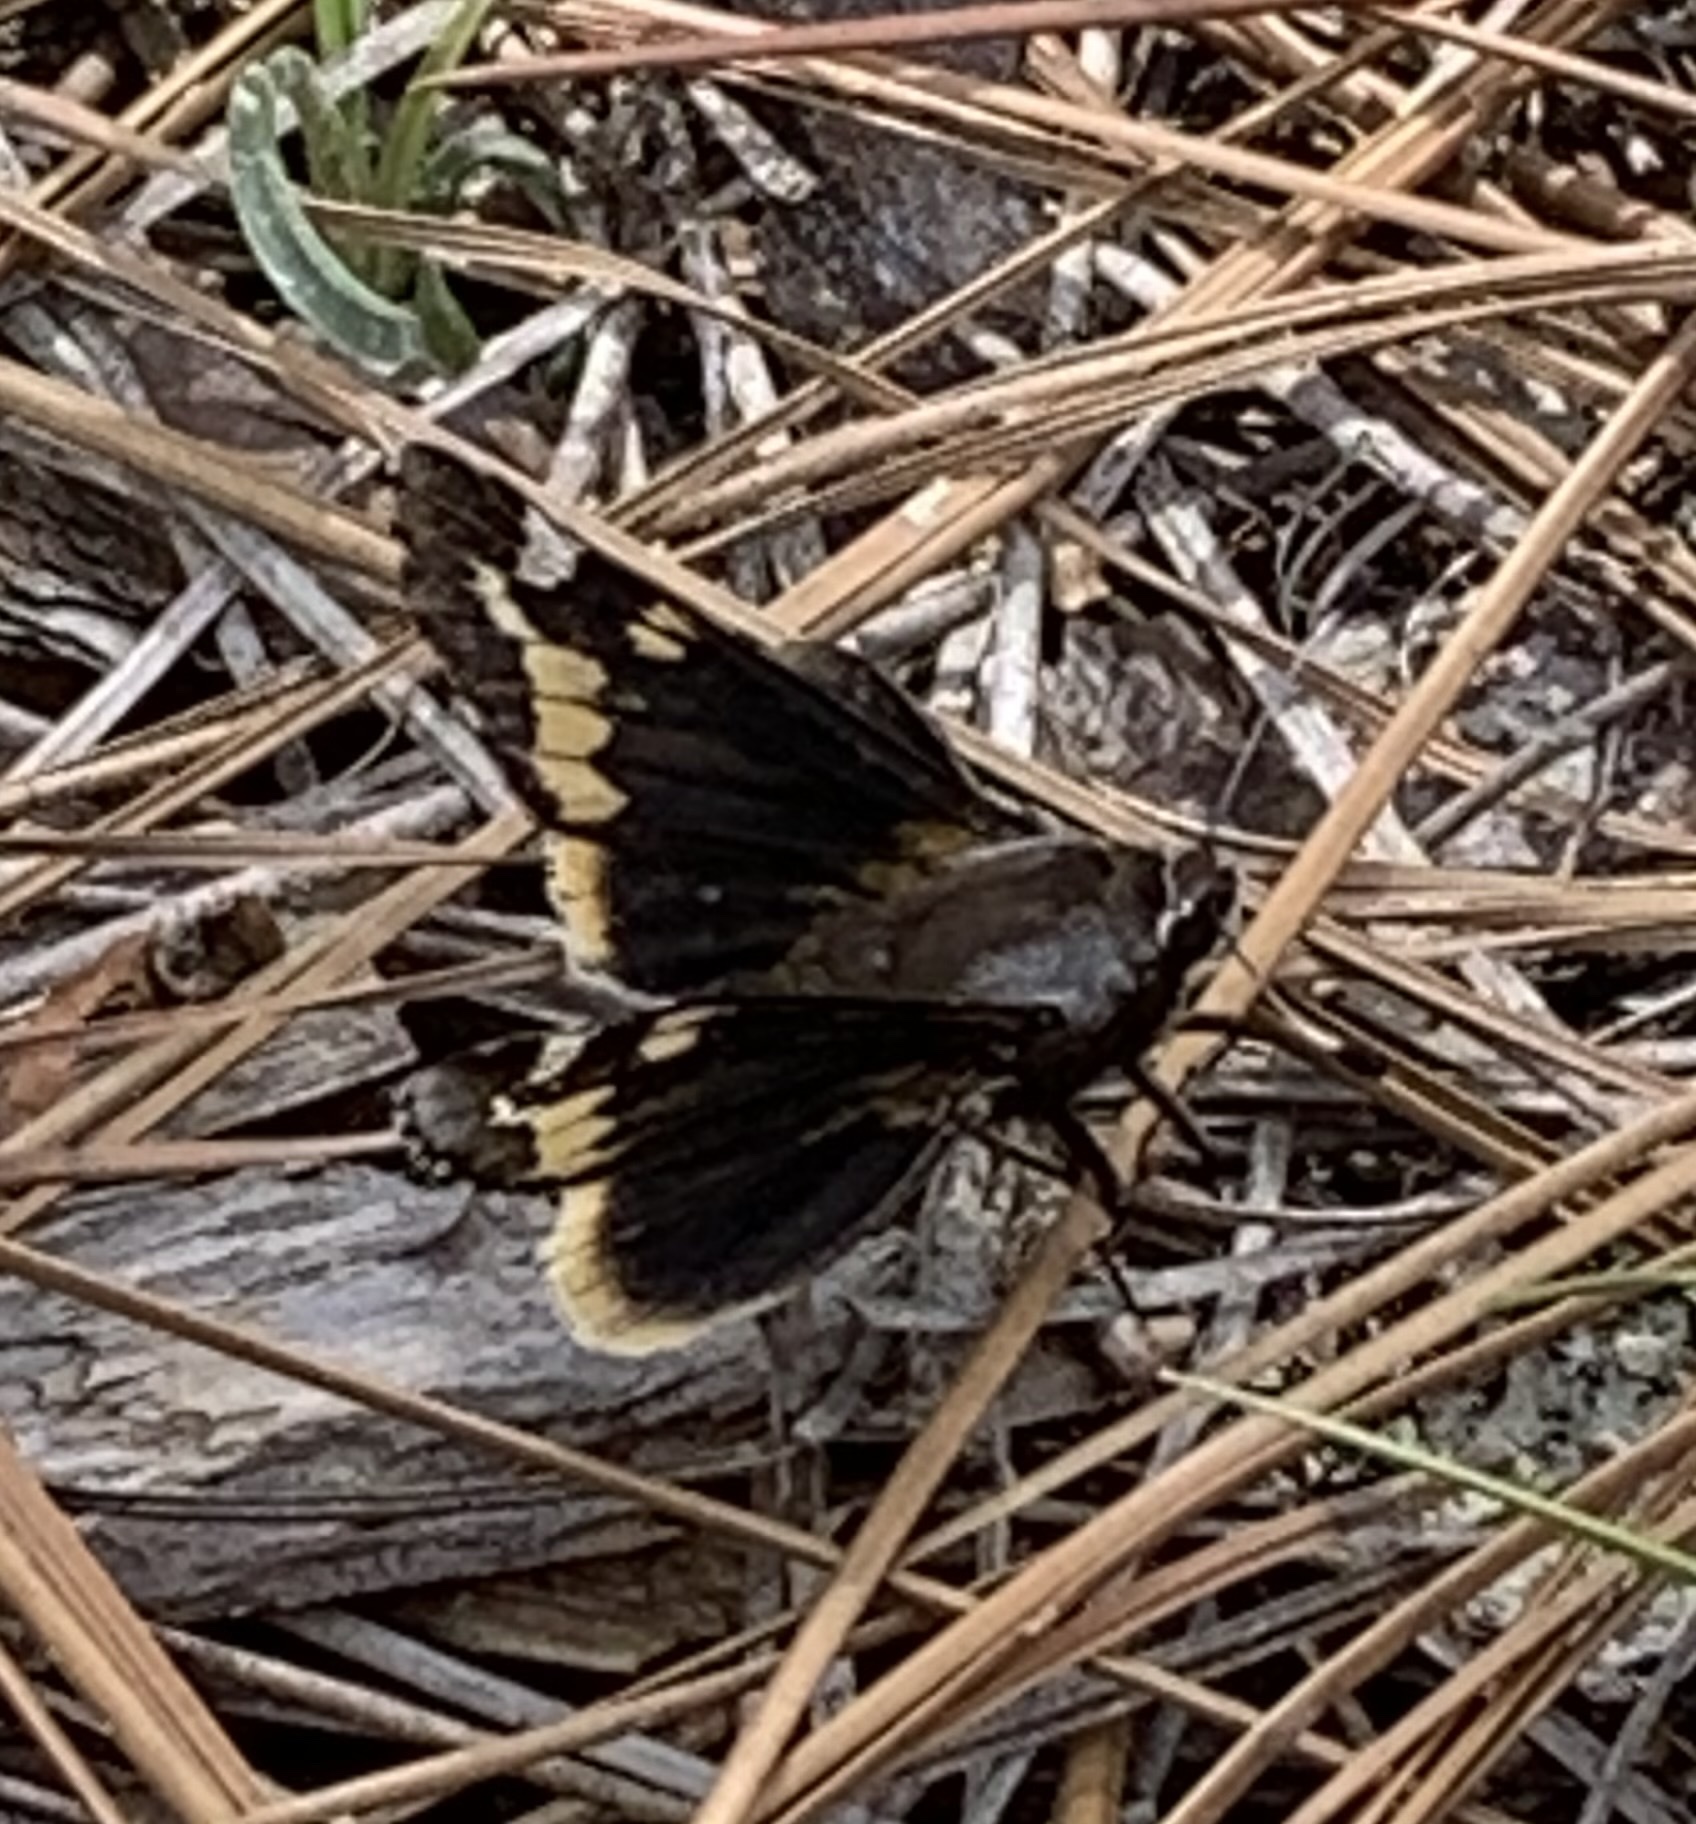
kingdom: Animalia
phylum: Arthropoda
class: Insecta
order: Lepidoptera
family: Hesperiidae
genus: Megathymus
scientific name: Megathymus yuccae
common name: Yucca giant-skipper
